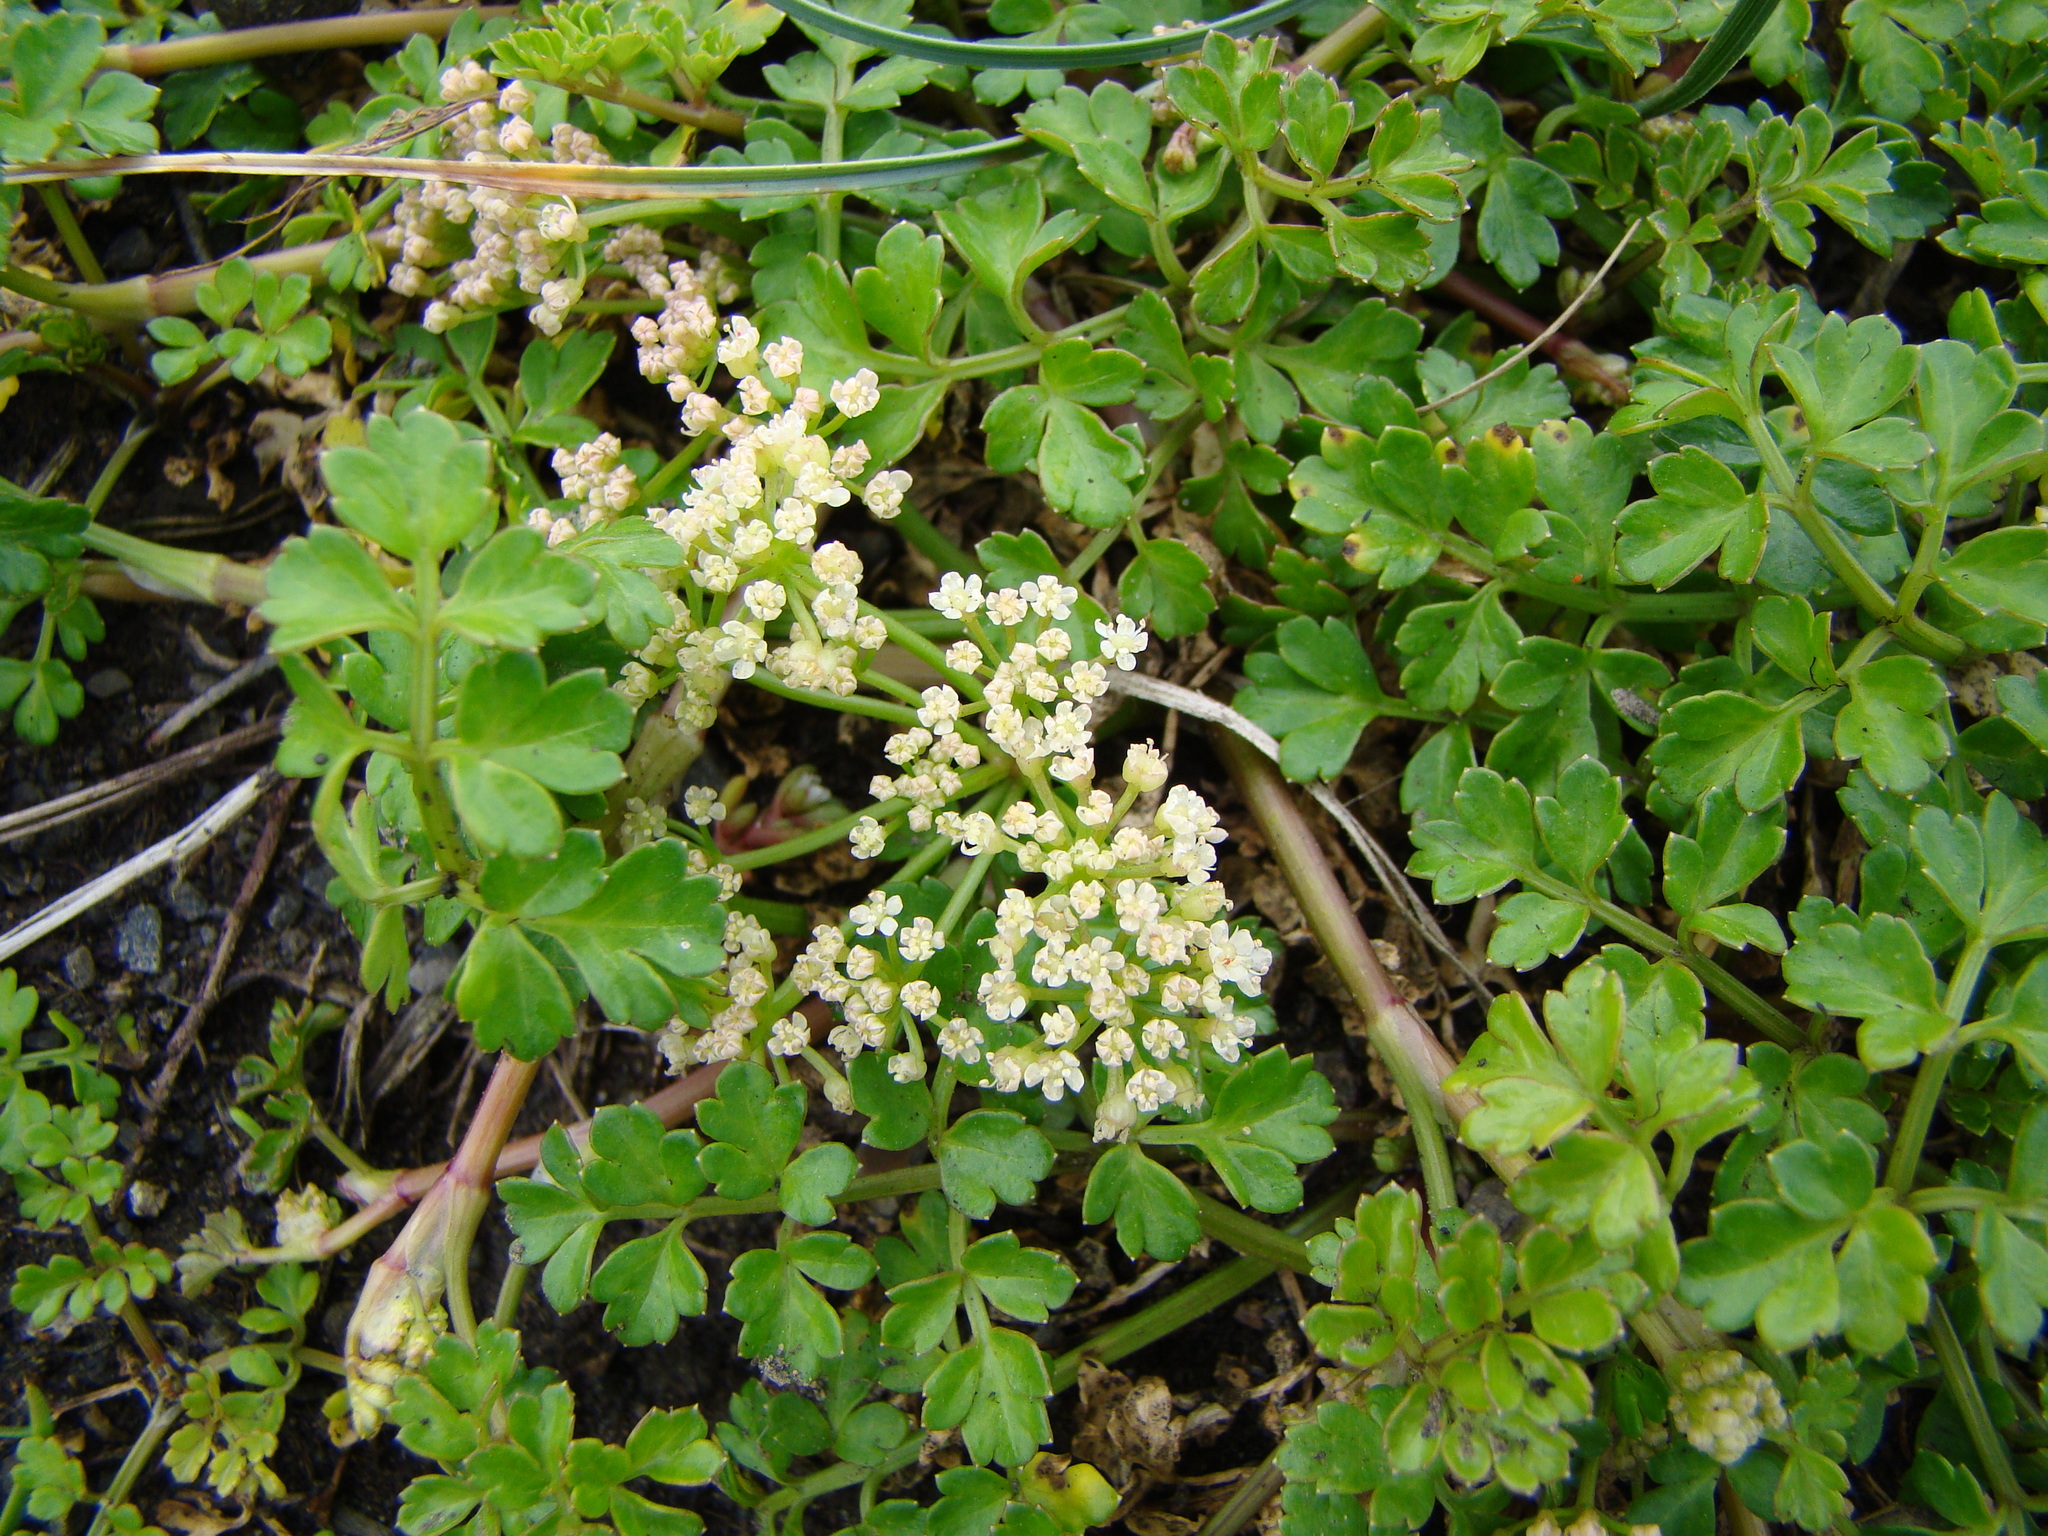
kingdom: Plantae
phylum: Tracheophyta
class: Magnoliopsida
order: Apiales
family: Apiaceae
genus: Apium
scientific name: Apium prostratum
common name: Prostrate marshwort
